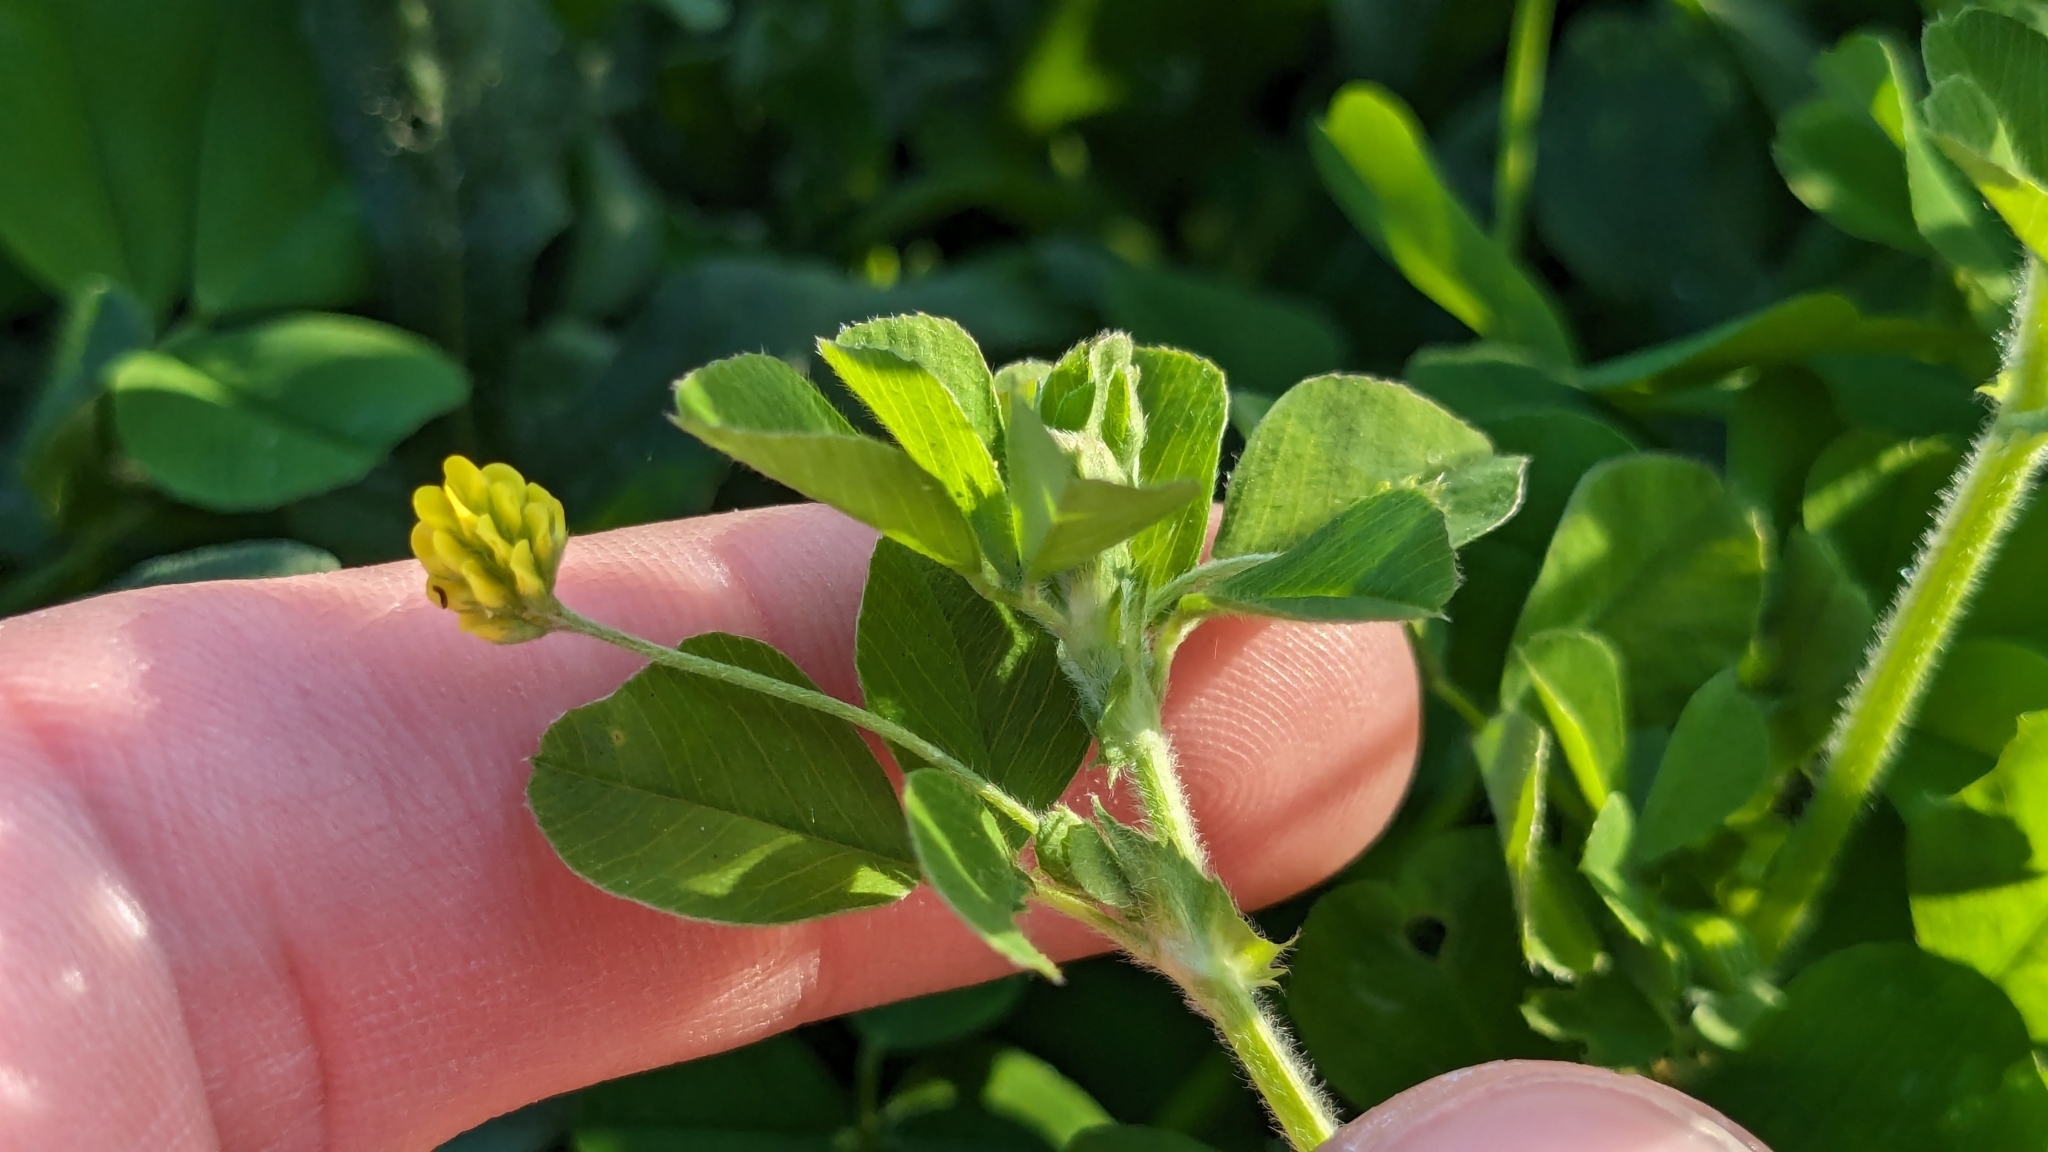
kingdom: Plantae
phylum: Tracheophyta
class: Magnoliopsida
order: Fabales
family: Fabaceae
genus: Medicago
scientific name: Medicago lupulina
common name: Black medick
